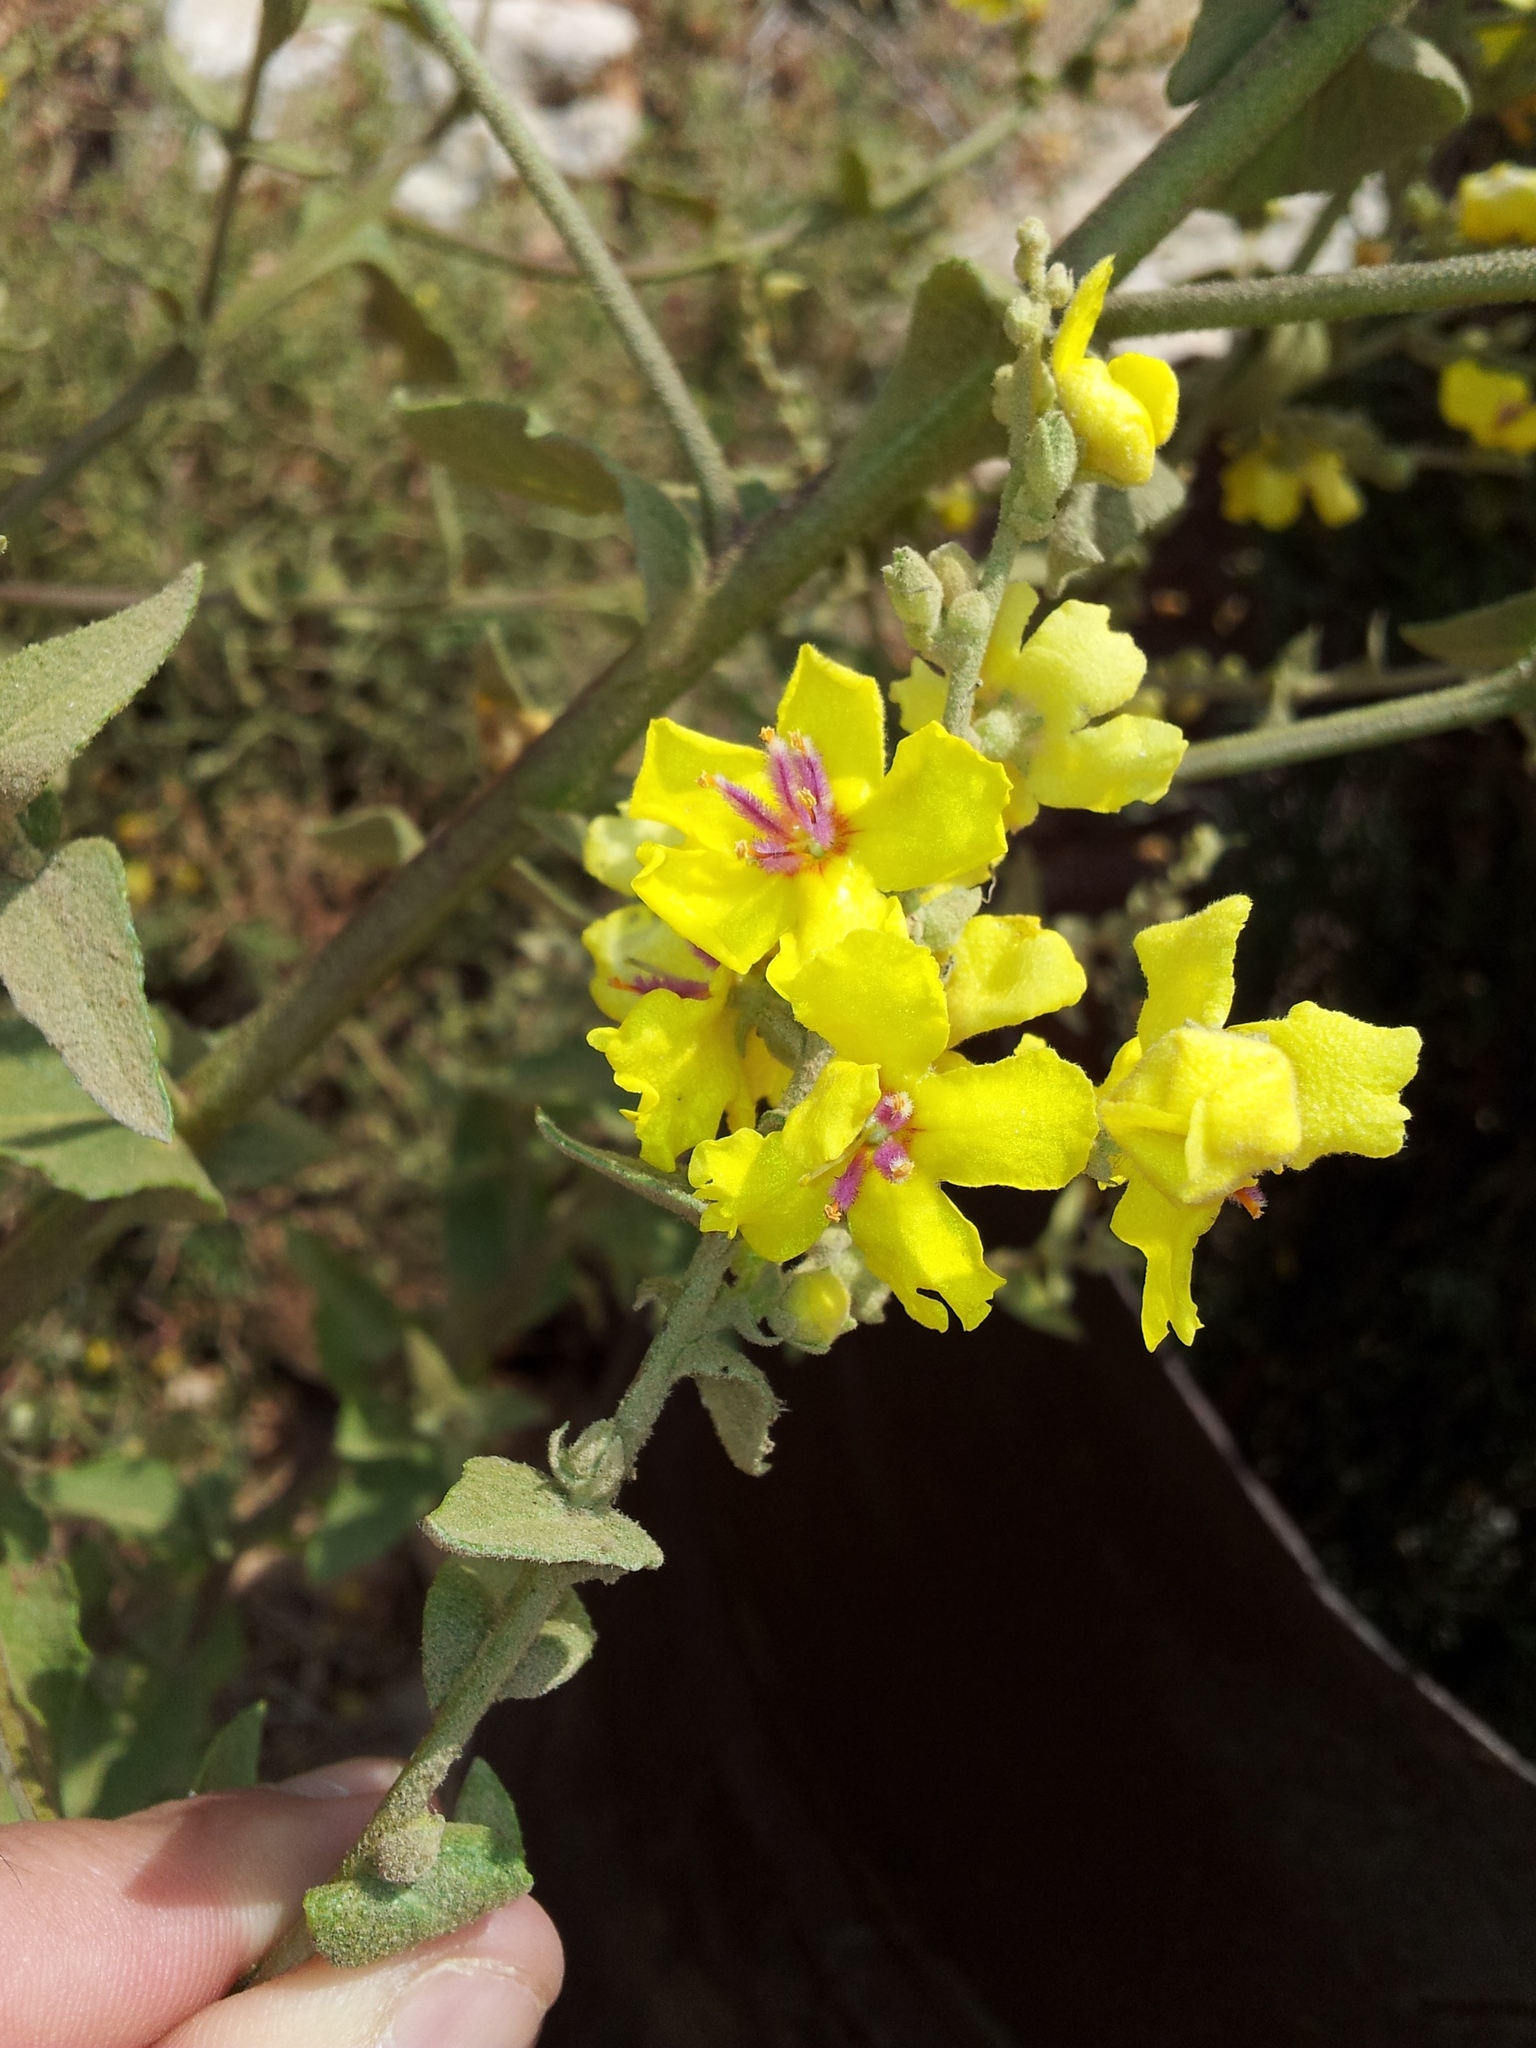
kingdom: Plantae
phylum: Tracheophyta
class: Magnoliopsida
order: Lamiales
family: Scrophulariaceae
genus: Verbascum
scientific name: Verbascum sinuatum
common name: Wavyleaf mullein
